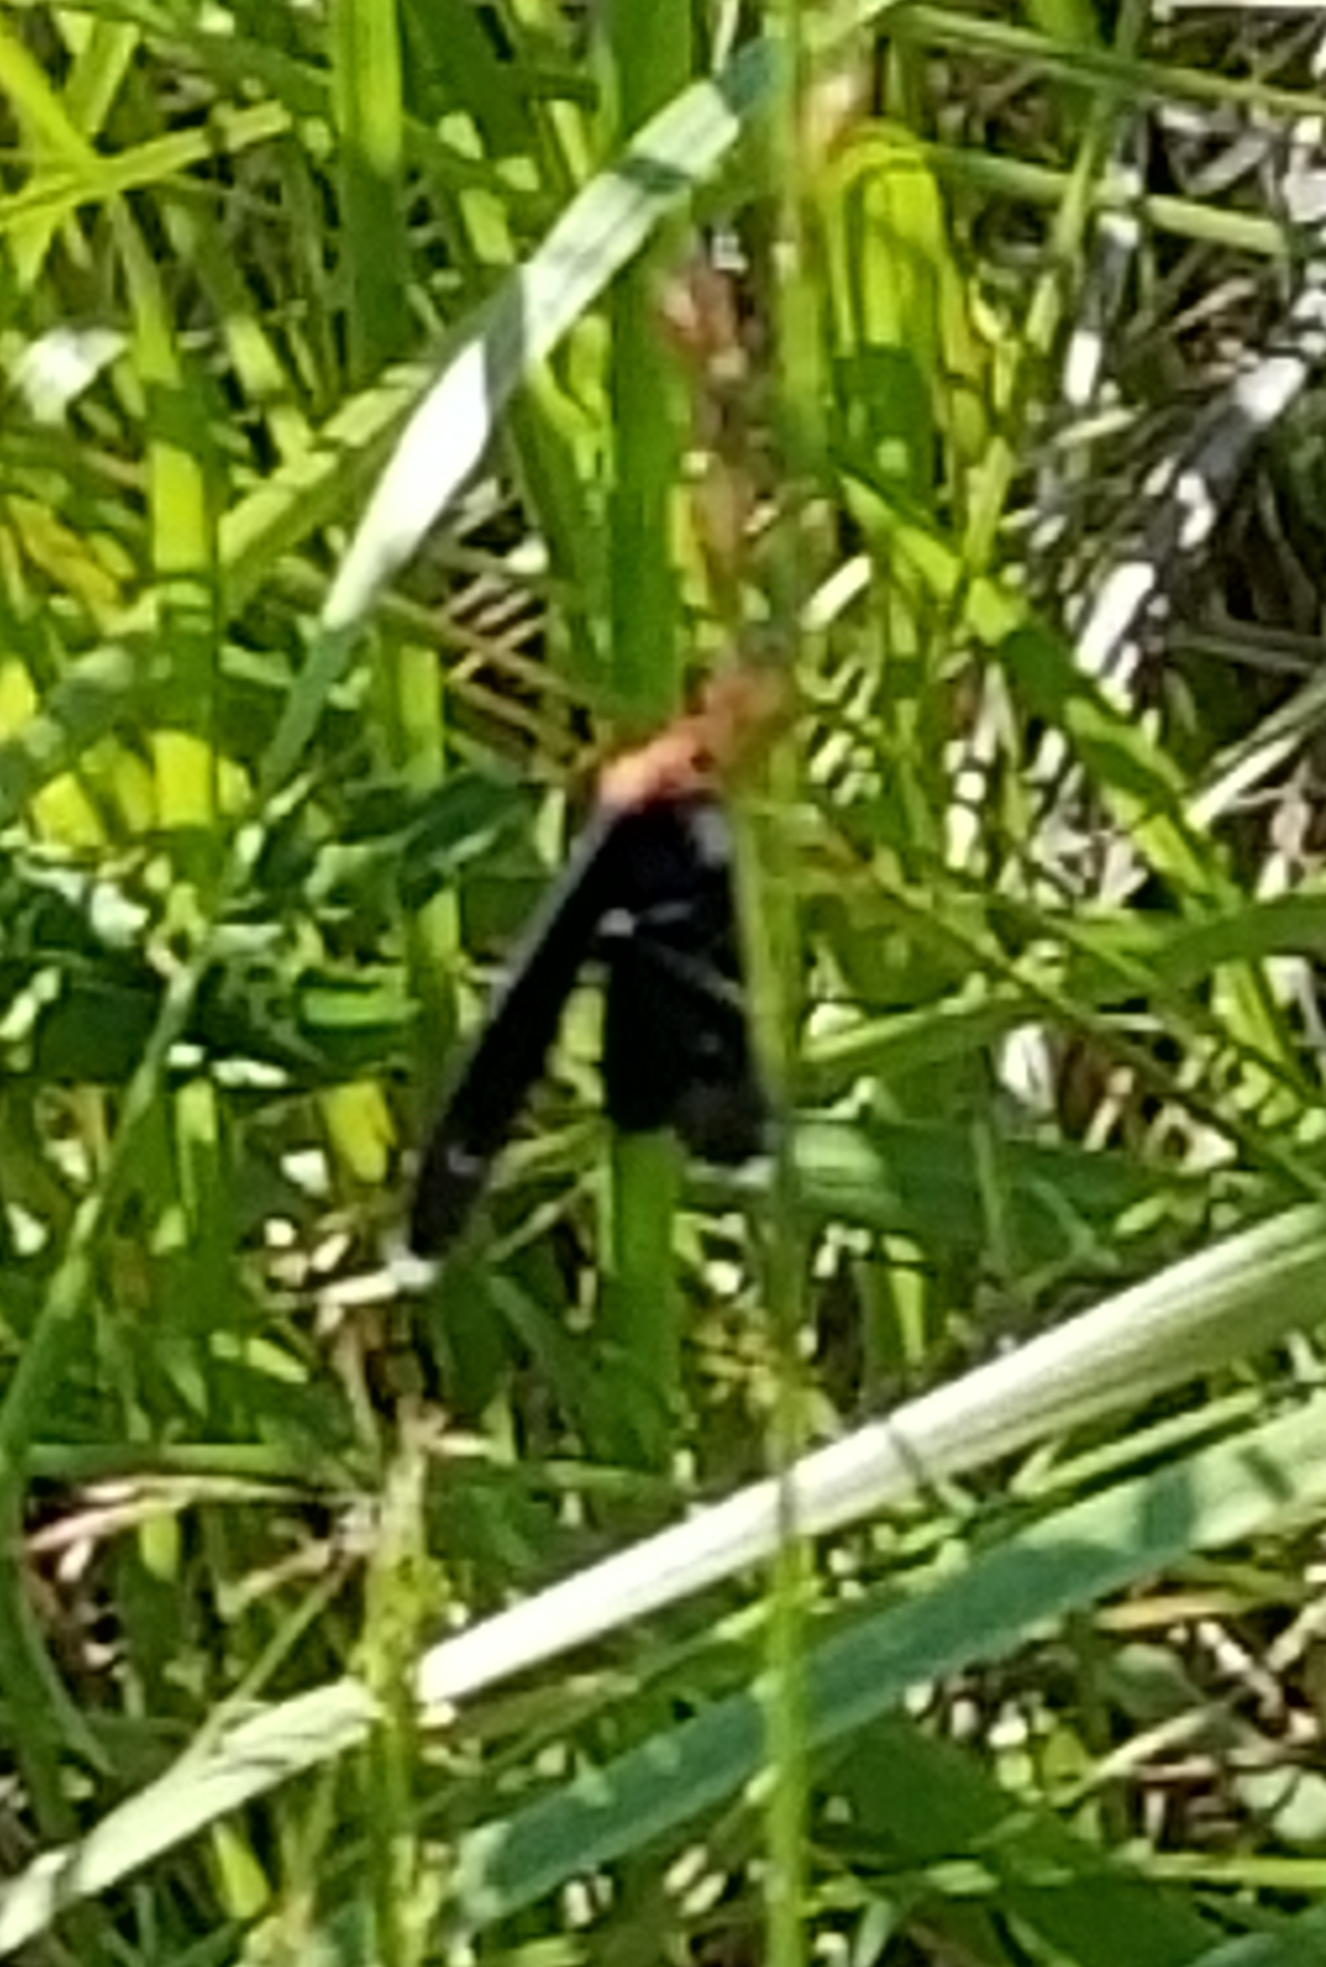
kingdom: Animalia
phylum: Arthropoda
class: Insecta
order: Lepidoptera
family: Erebidae
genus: Ctenucha
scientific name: Ctenucha rubroscapus
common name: Red-shouldered ctenucha
